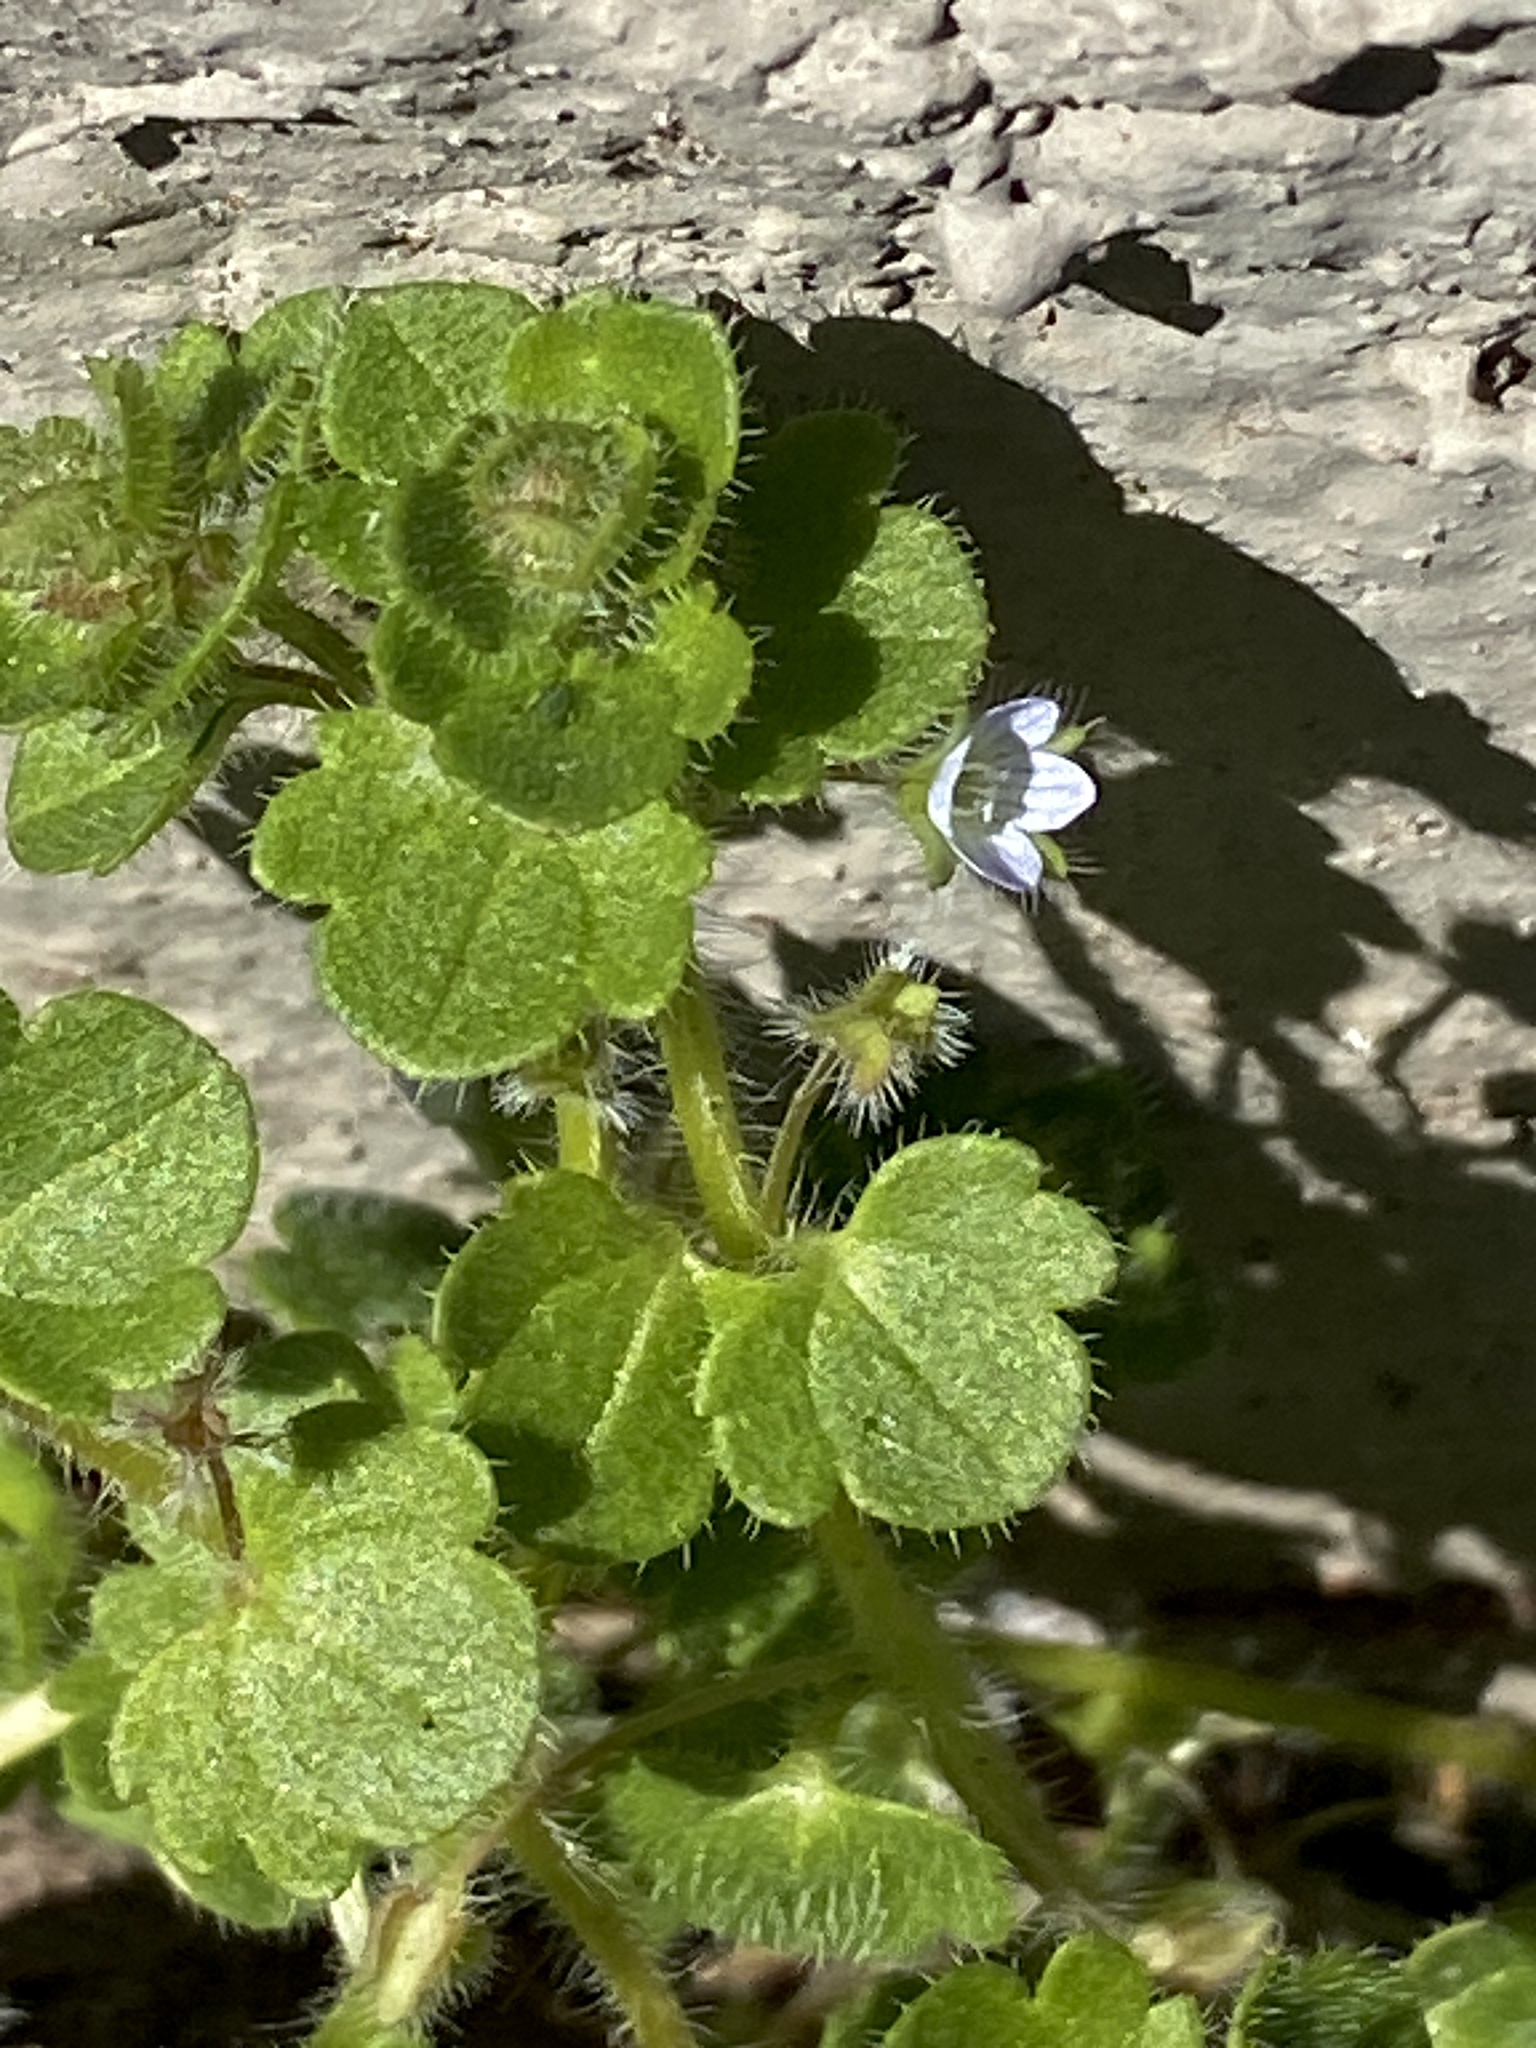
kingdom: Plantae
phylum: Tracheophyta
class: Magnoliopsida
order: Lamiales
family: Plantaginaceae
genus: Veronica
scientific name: Veronica hederifolia
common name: Ivy-leaved speedwell
